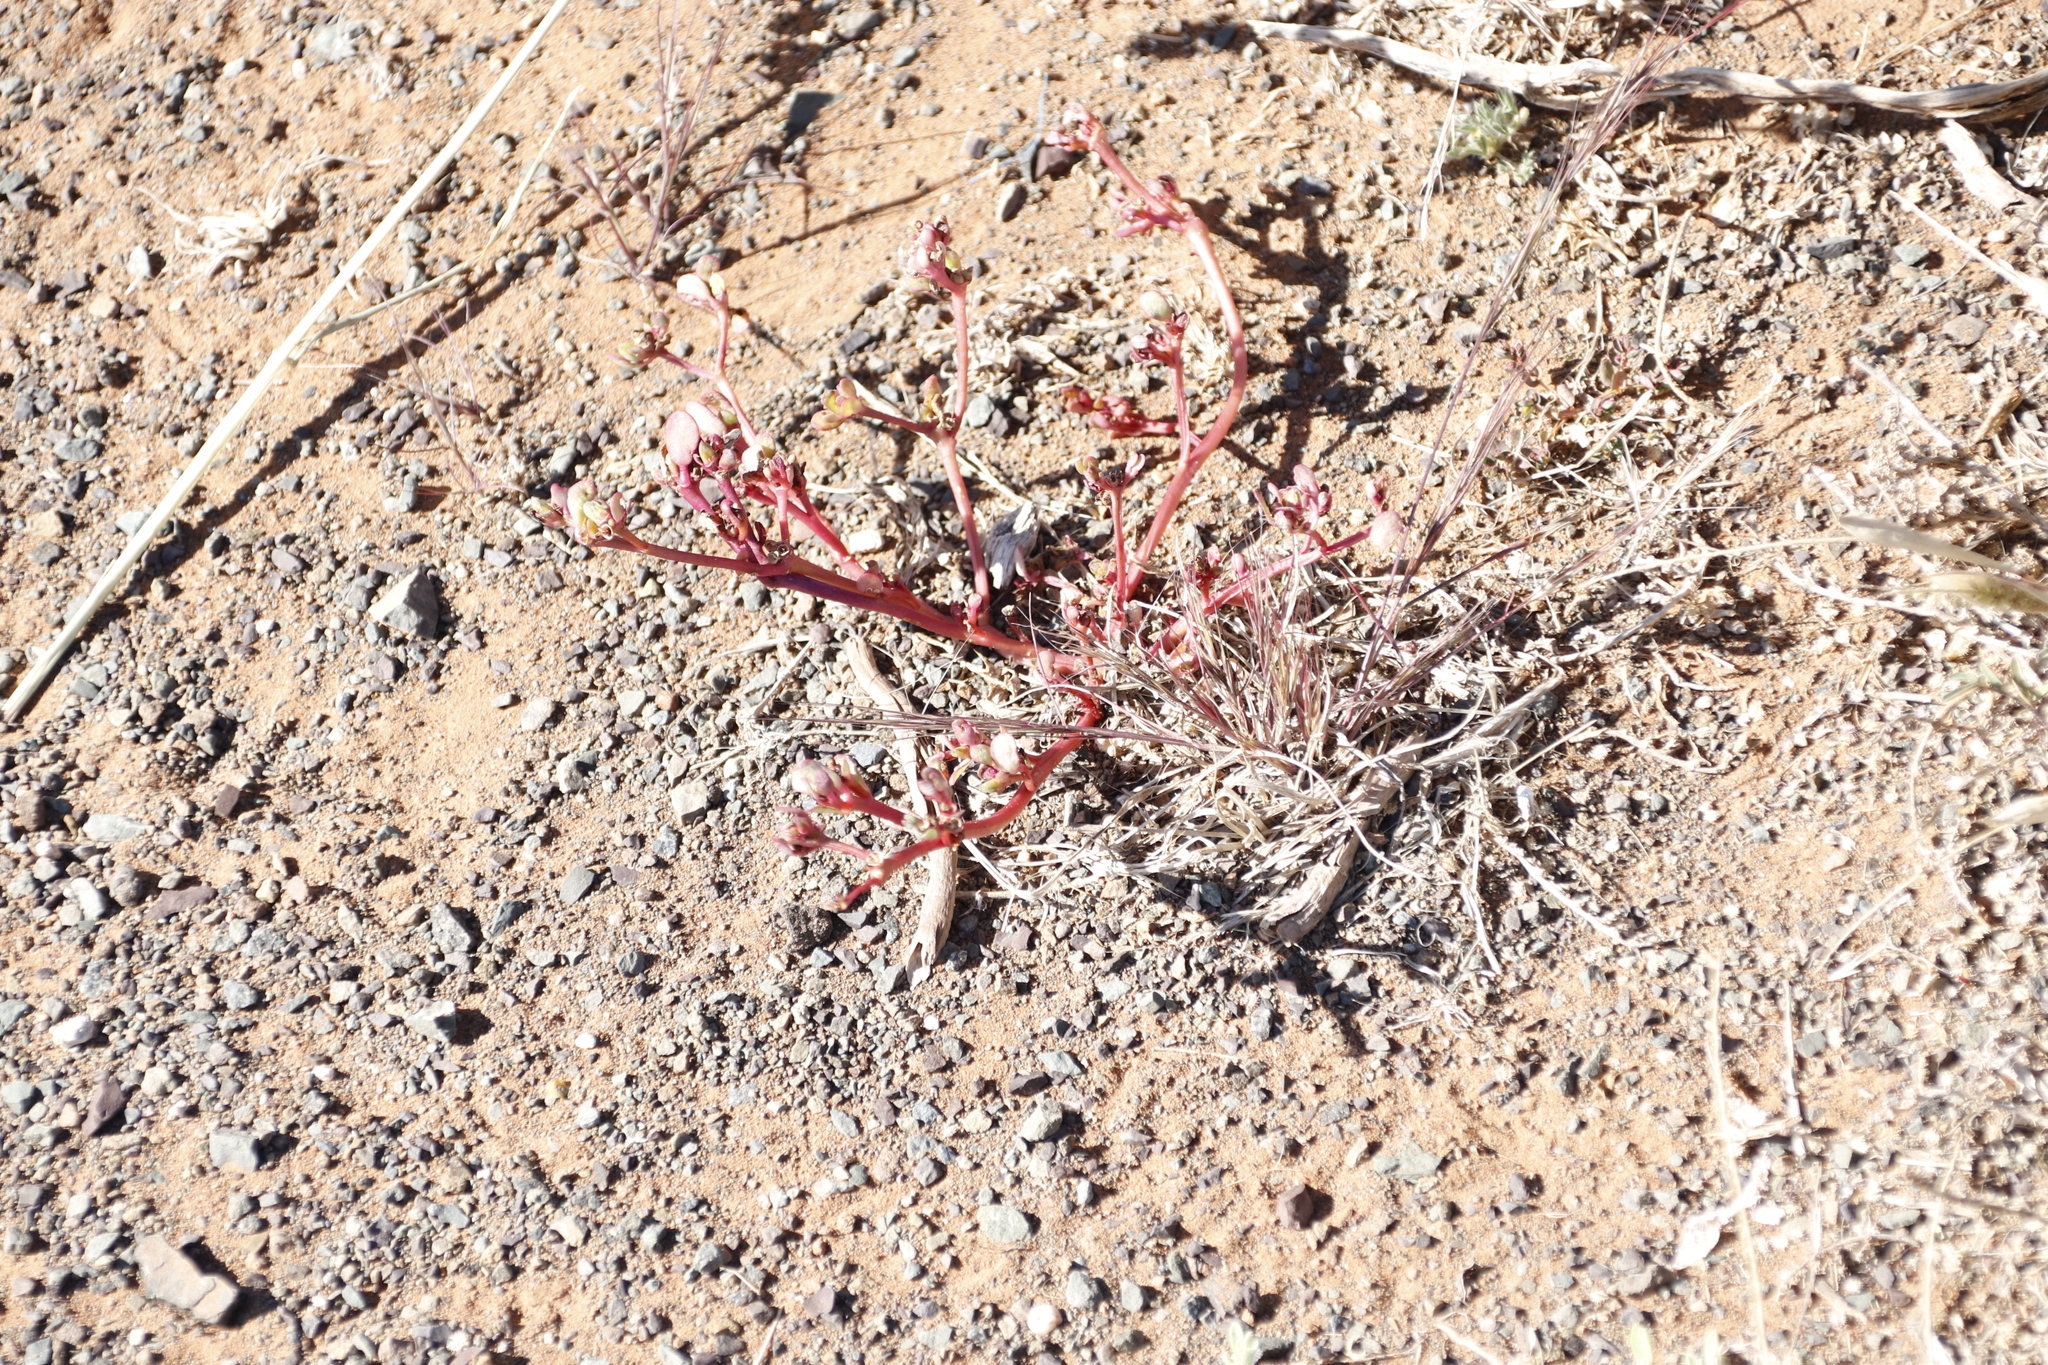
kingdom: Plantae
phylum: Tracheophyta
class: Magnoliopsida
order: Caryophyllales
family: Portulacaceae
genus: Portulaca
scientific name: Portulaca oleracea
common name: Common purslane
